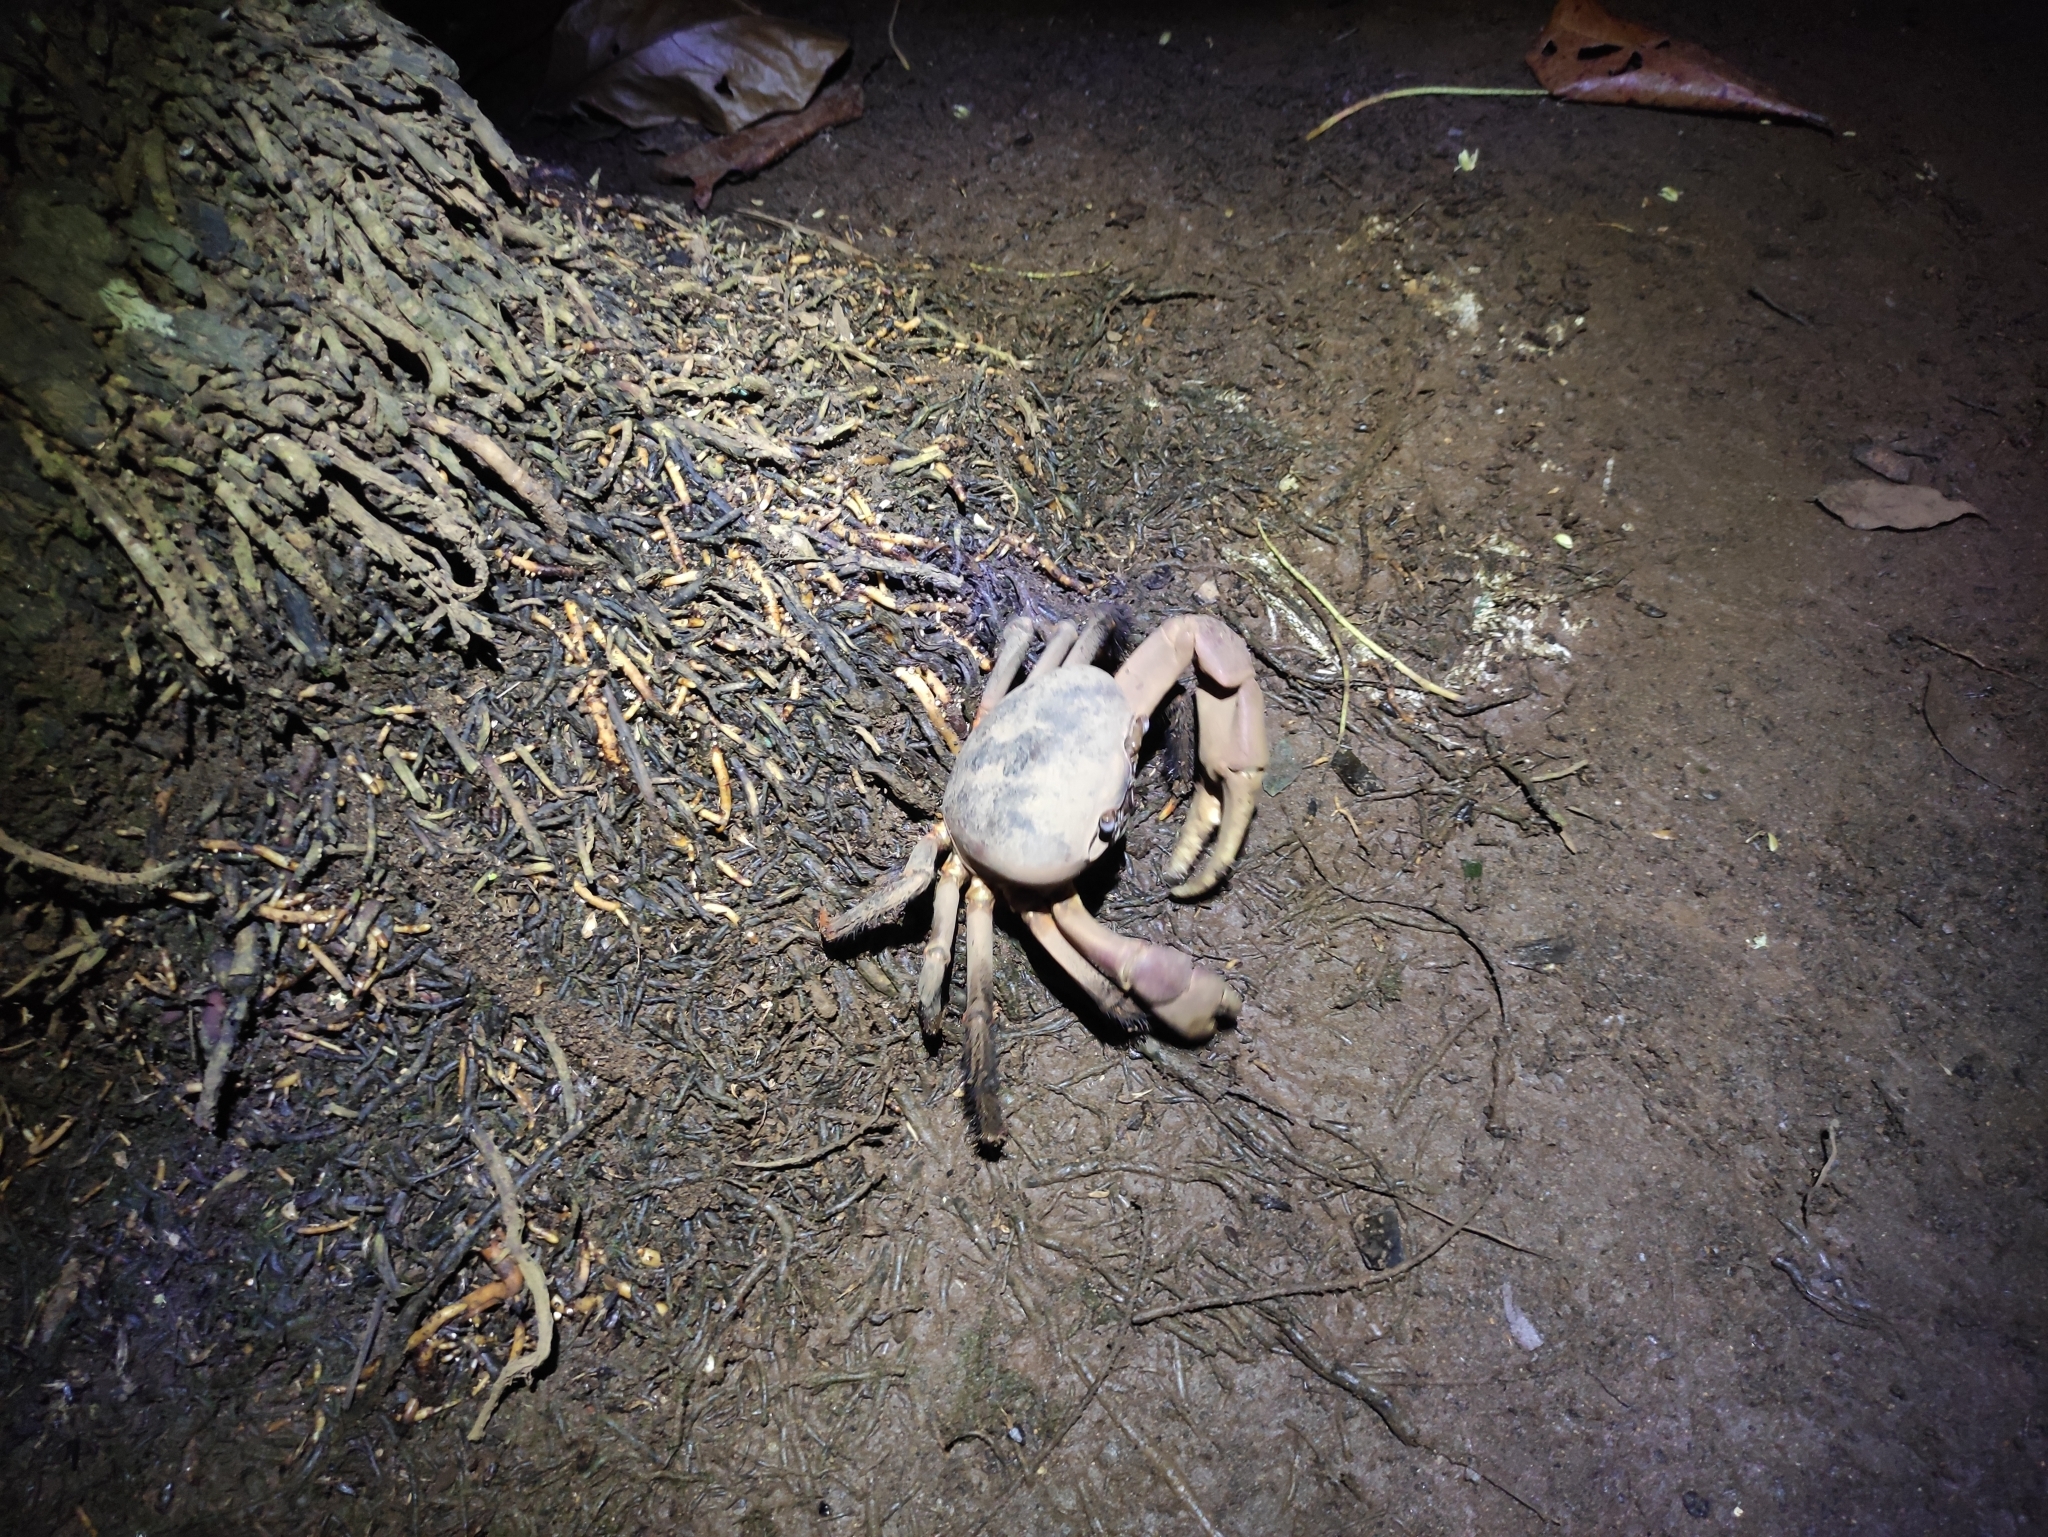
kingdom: Animalia
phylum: Arthropoda
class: Malacostraca
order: Decapoda
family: Gecarcinidae
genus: Cardisoma
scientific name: Cardisoma carnifex
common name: Brown land crab
